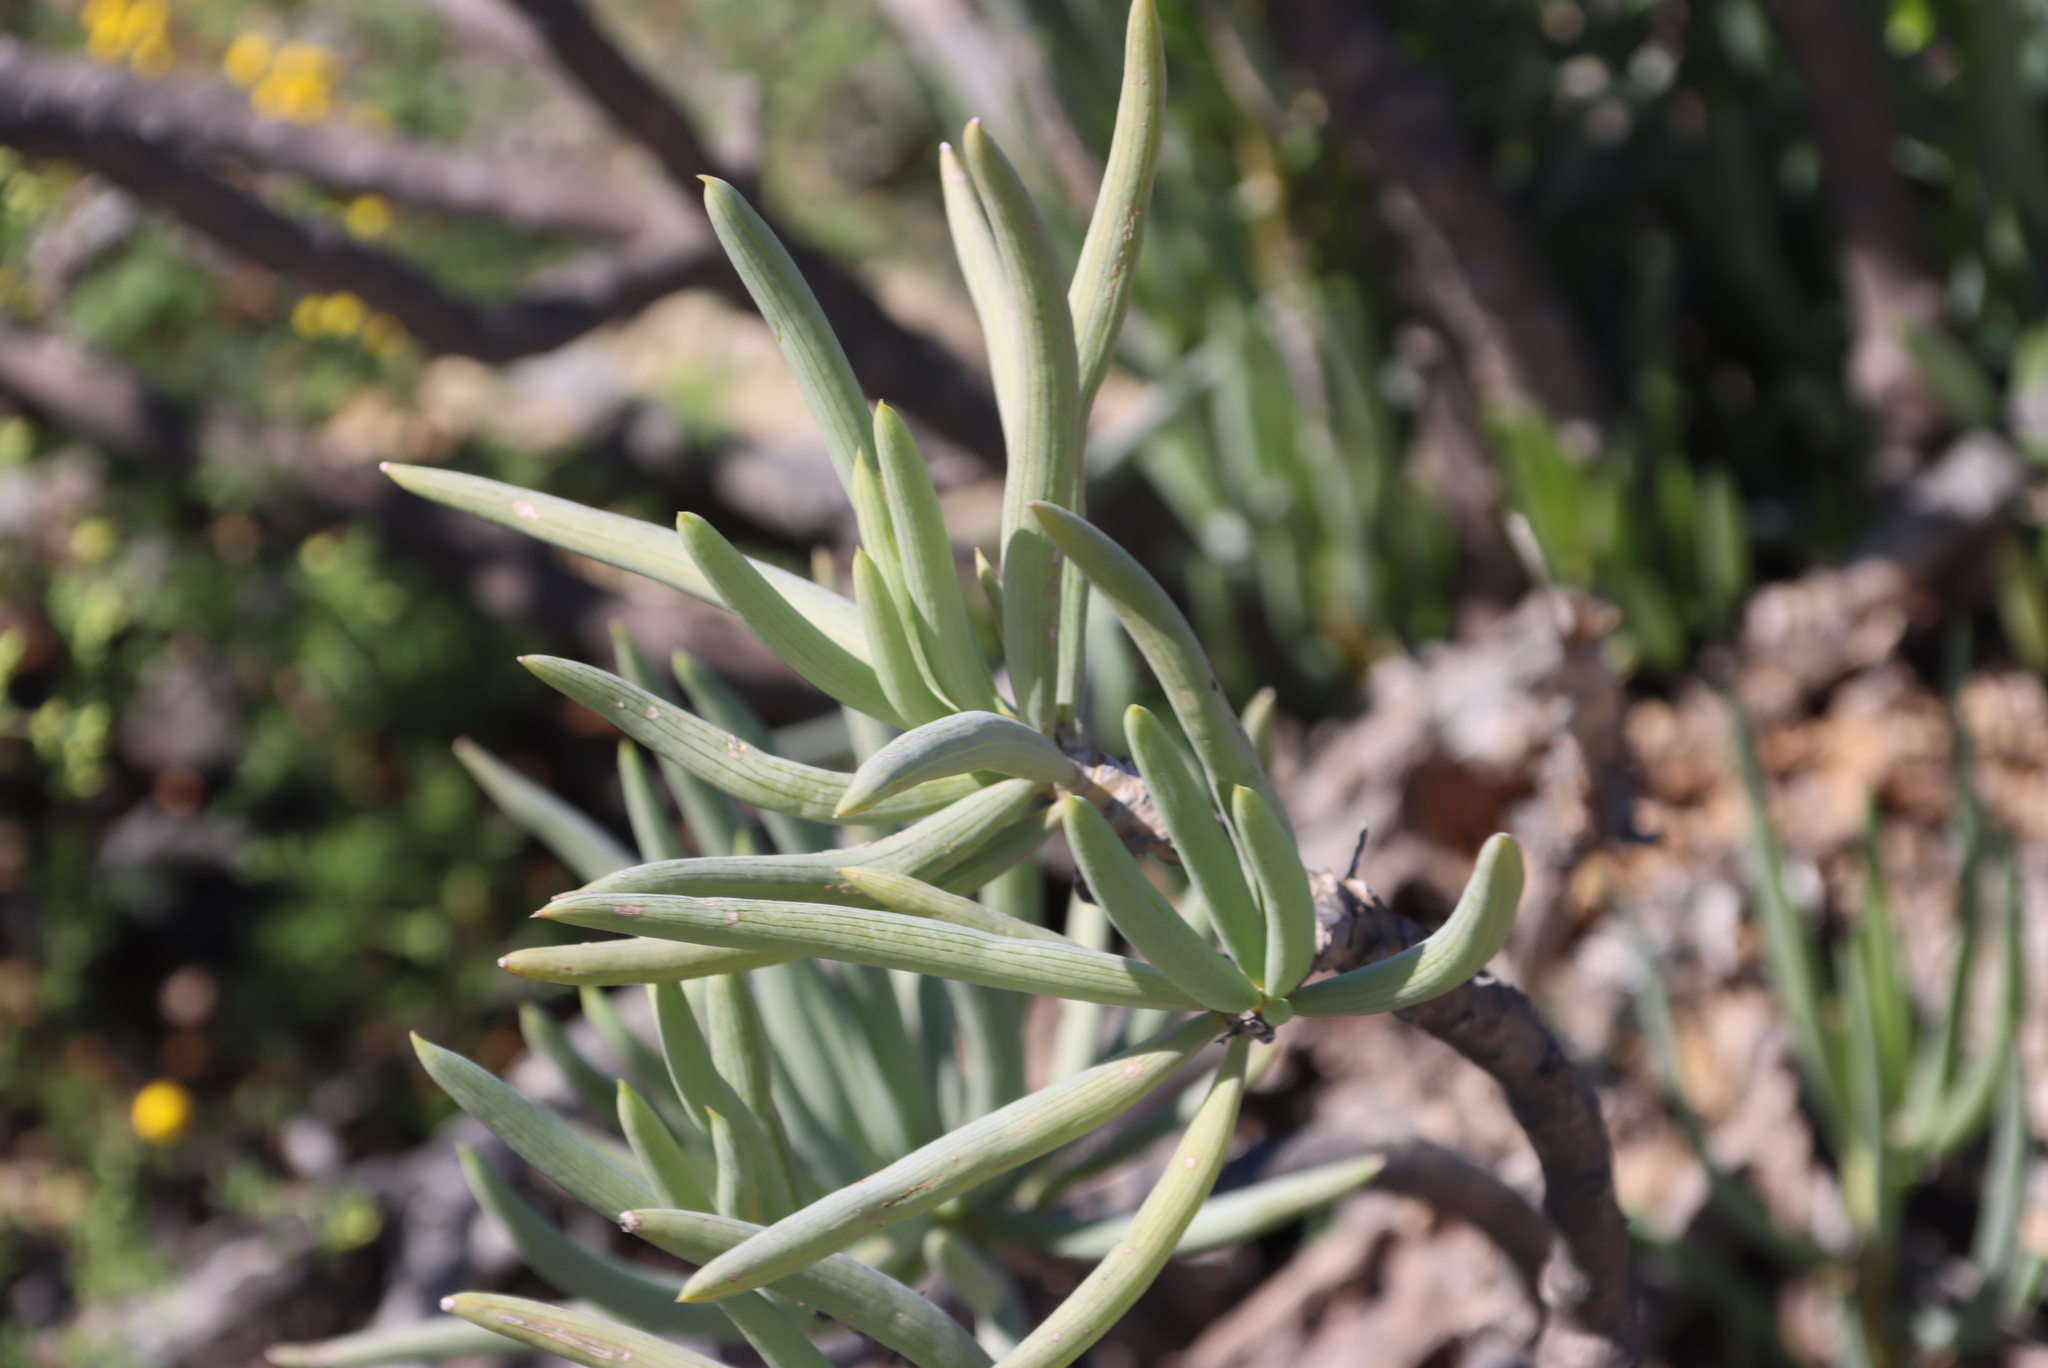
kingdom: Plantae
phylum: Tracheophyta
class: Magnoliopsida
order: Asterales
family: Asteraceae
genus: Curio
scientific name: Curio corymbifer
